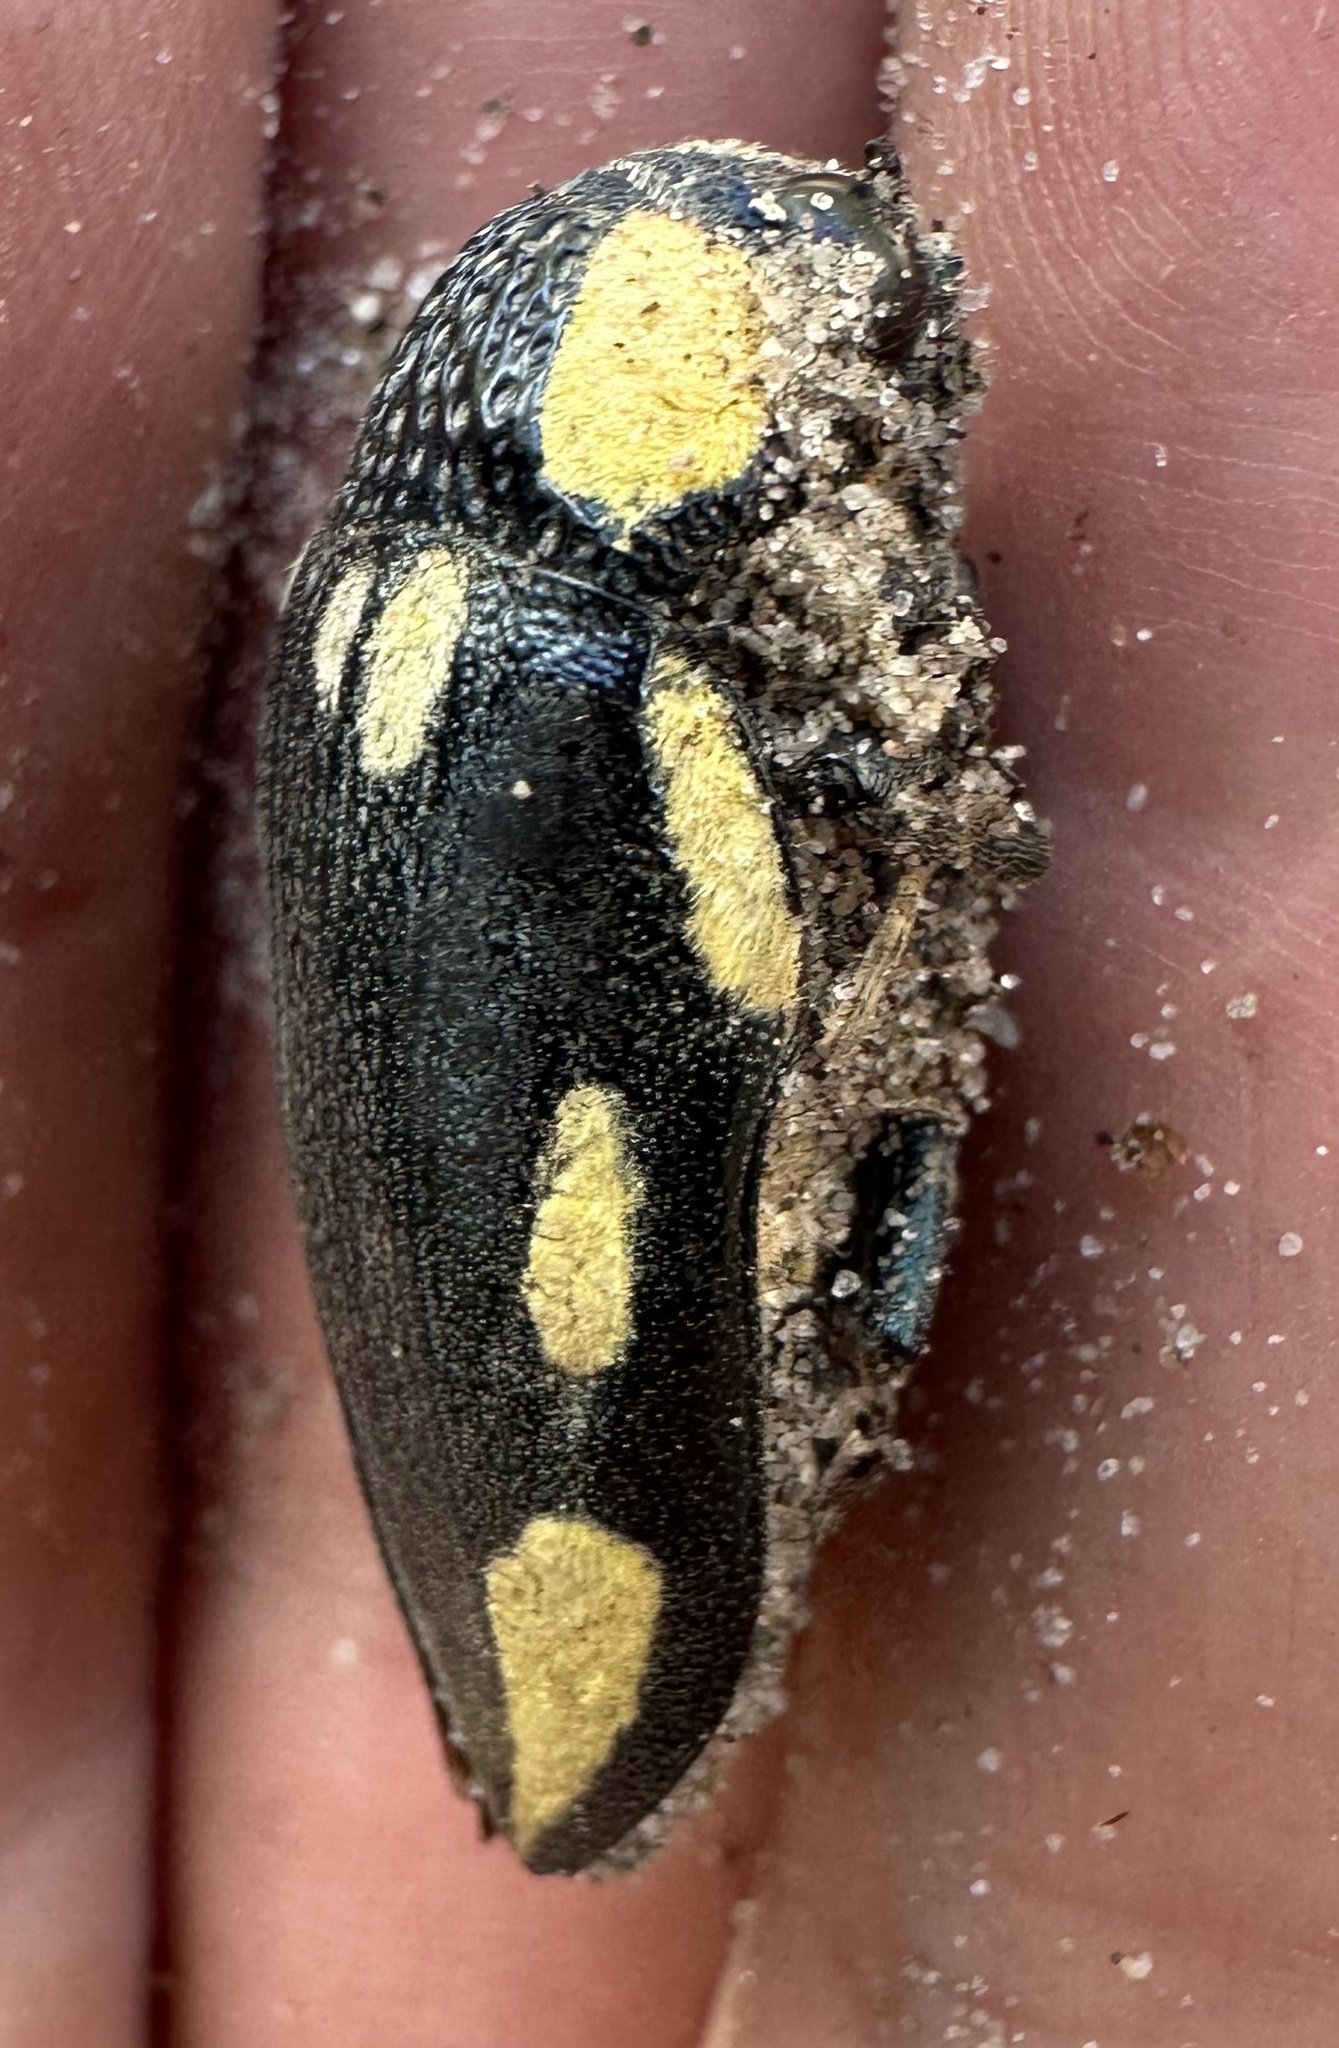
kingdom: Animalia
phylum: Arthropoda
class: Insecta
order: Coleoptera
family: Buprestidae
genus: Sternocera
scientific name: Sternocera orissa
